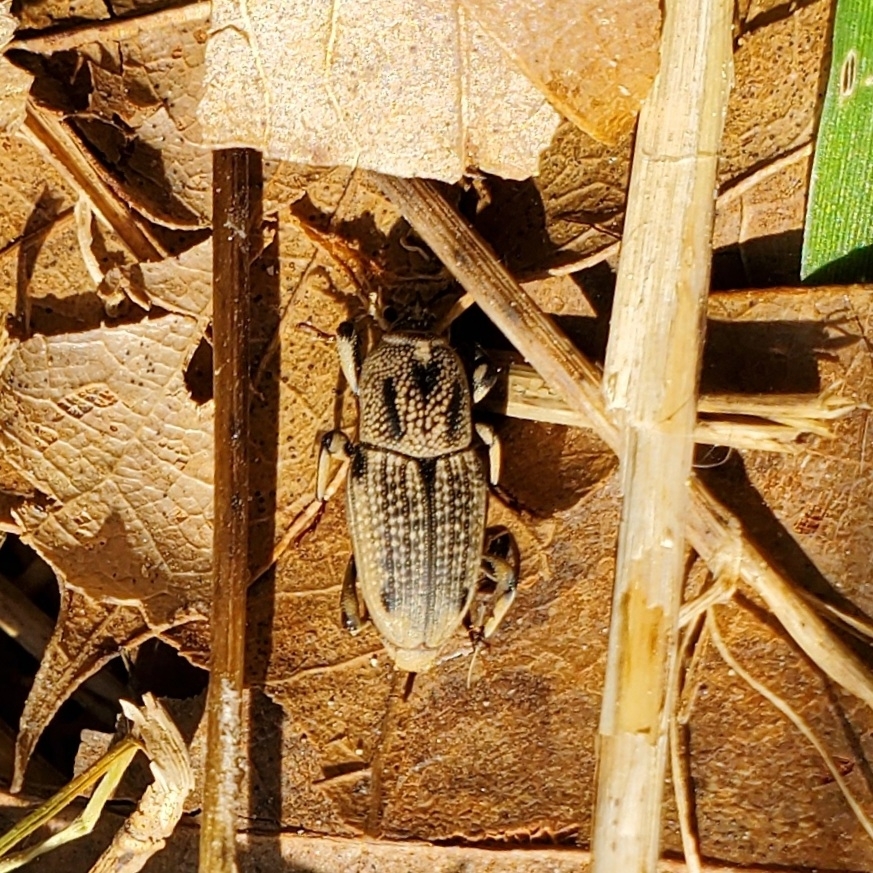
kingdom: Animalia
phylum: Arthropoda
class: Insecta
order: Coleoptera
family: Dryophthoridae
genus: Sphenophorus
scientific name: Sphenophorus venatus
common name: Hunting billbug
